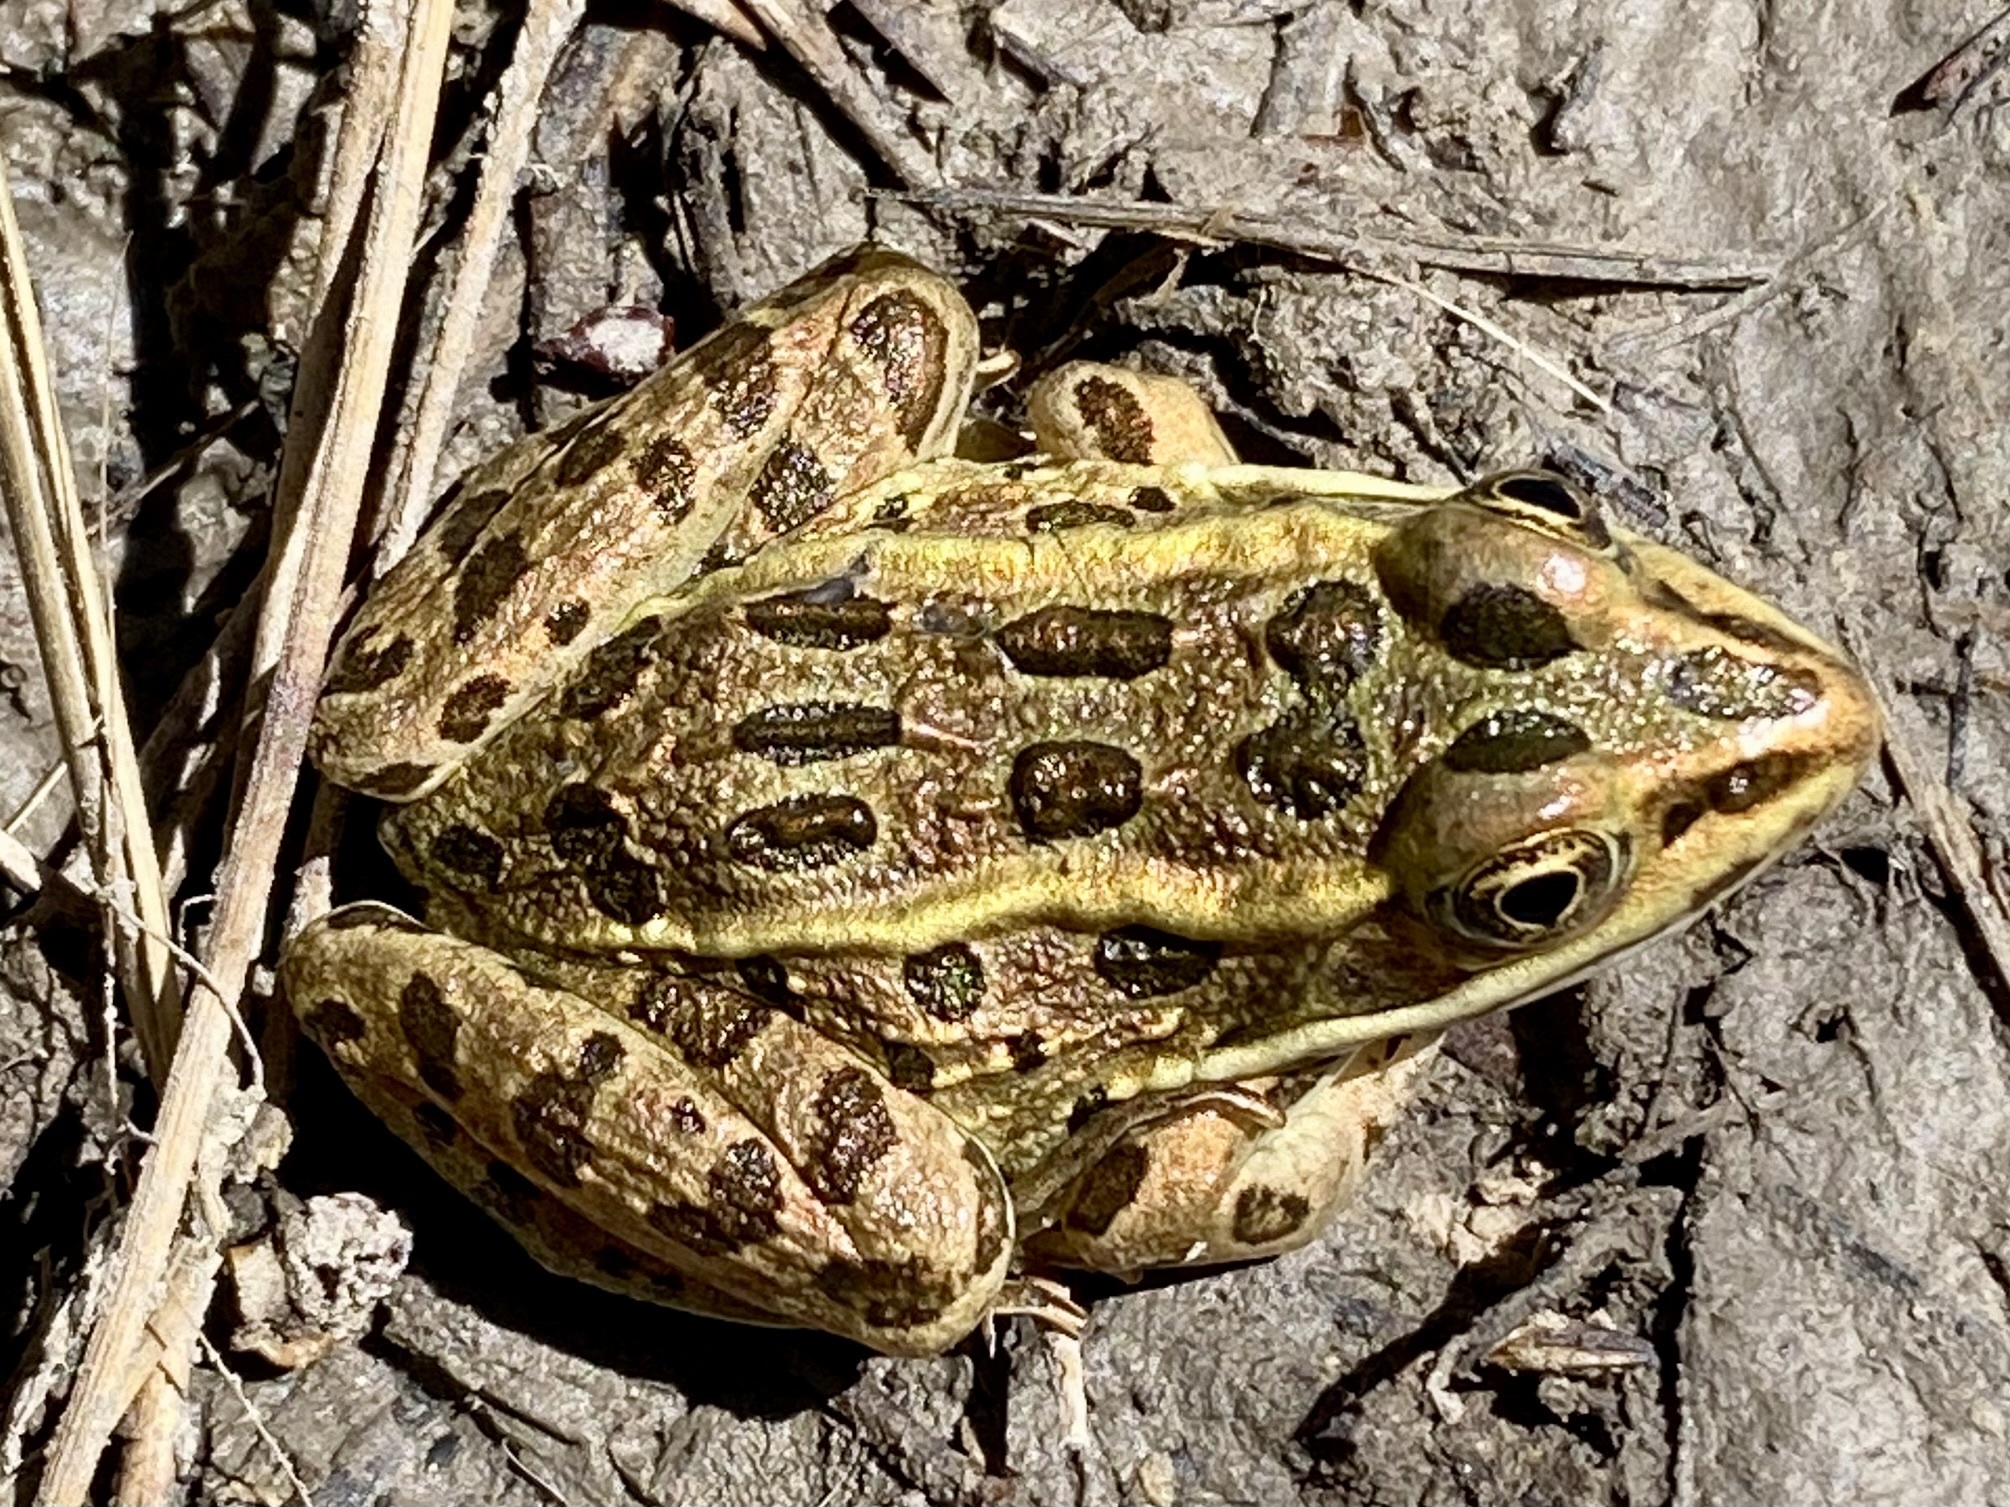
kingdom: Animalia
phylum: Chordata
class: Amphibia
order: Anura
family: Ranidae
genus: Lithobates
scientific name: Lithobates pipiens
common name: Northern leopard frog
